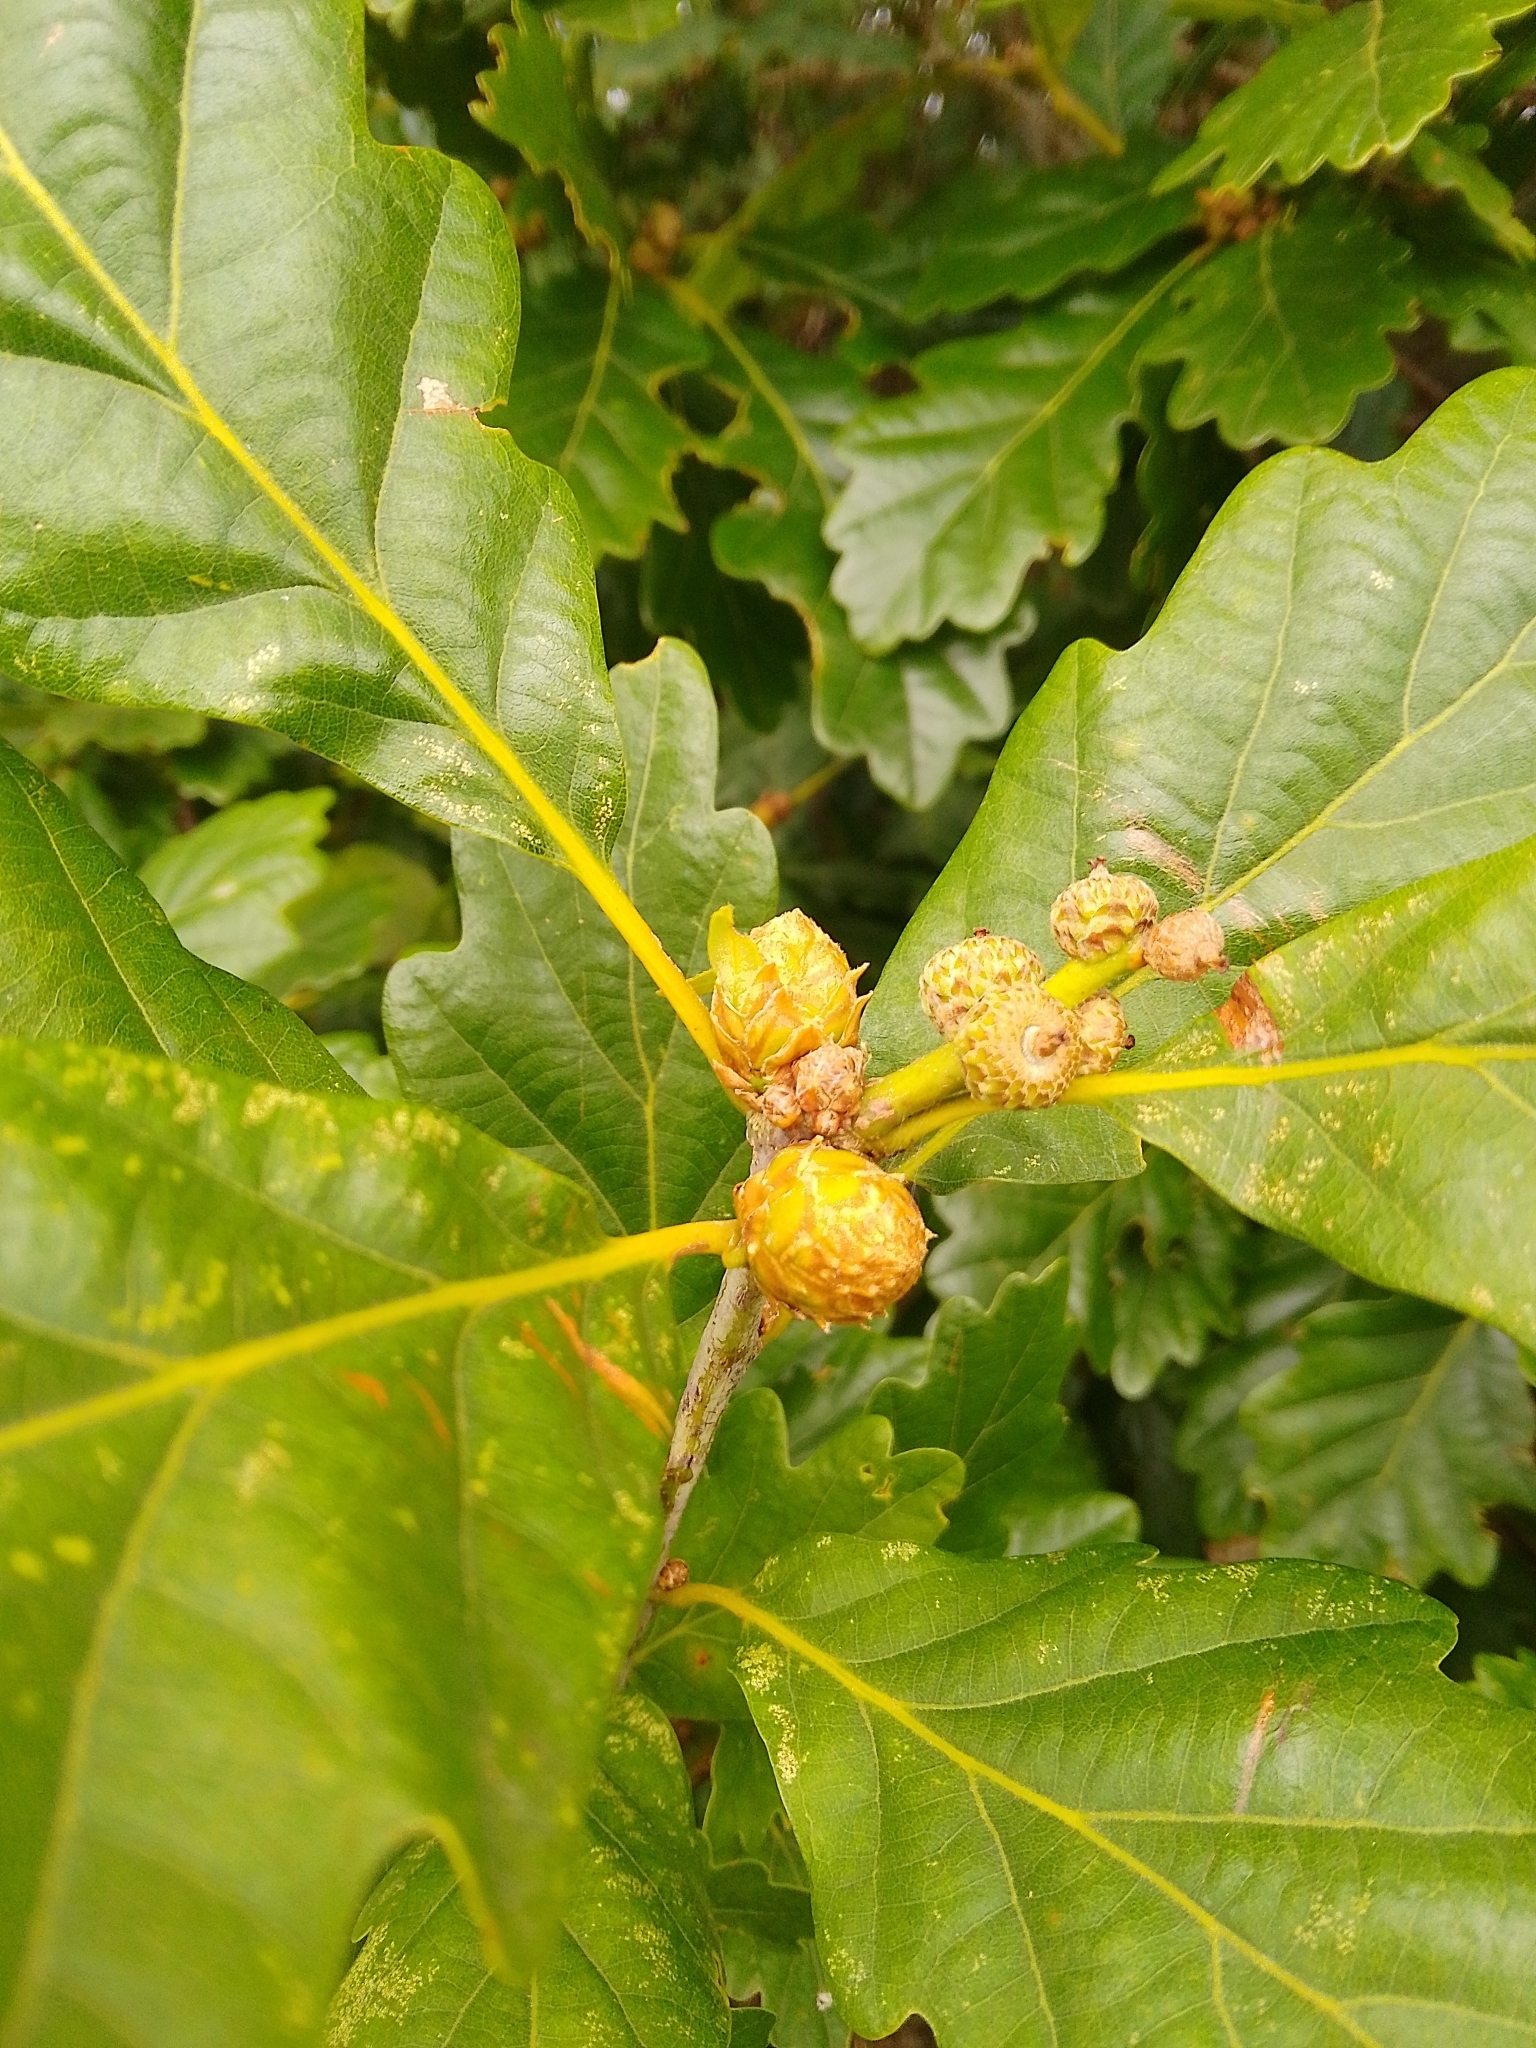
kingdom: Animalia
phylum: Arthropoda
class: Insecta
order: Hymenoptera
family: Cynipidae
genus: Andricus
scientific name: Andricus foecundatrix
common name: Artichoke gall
